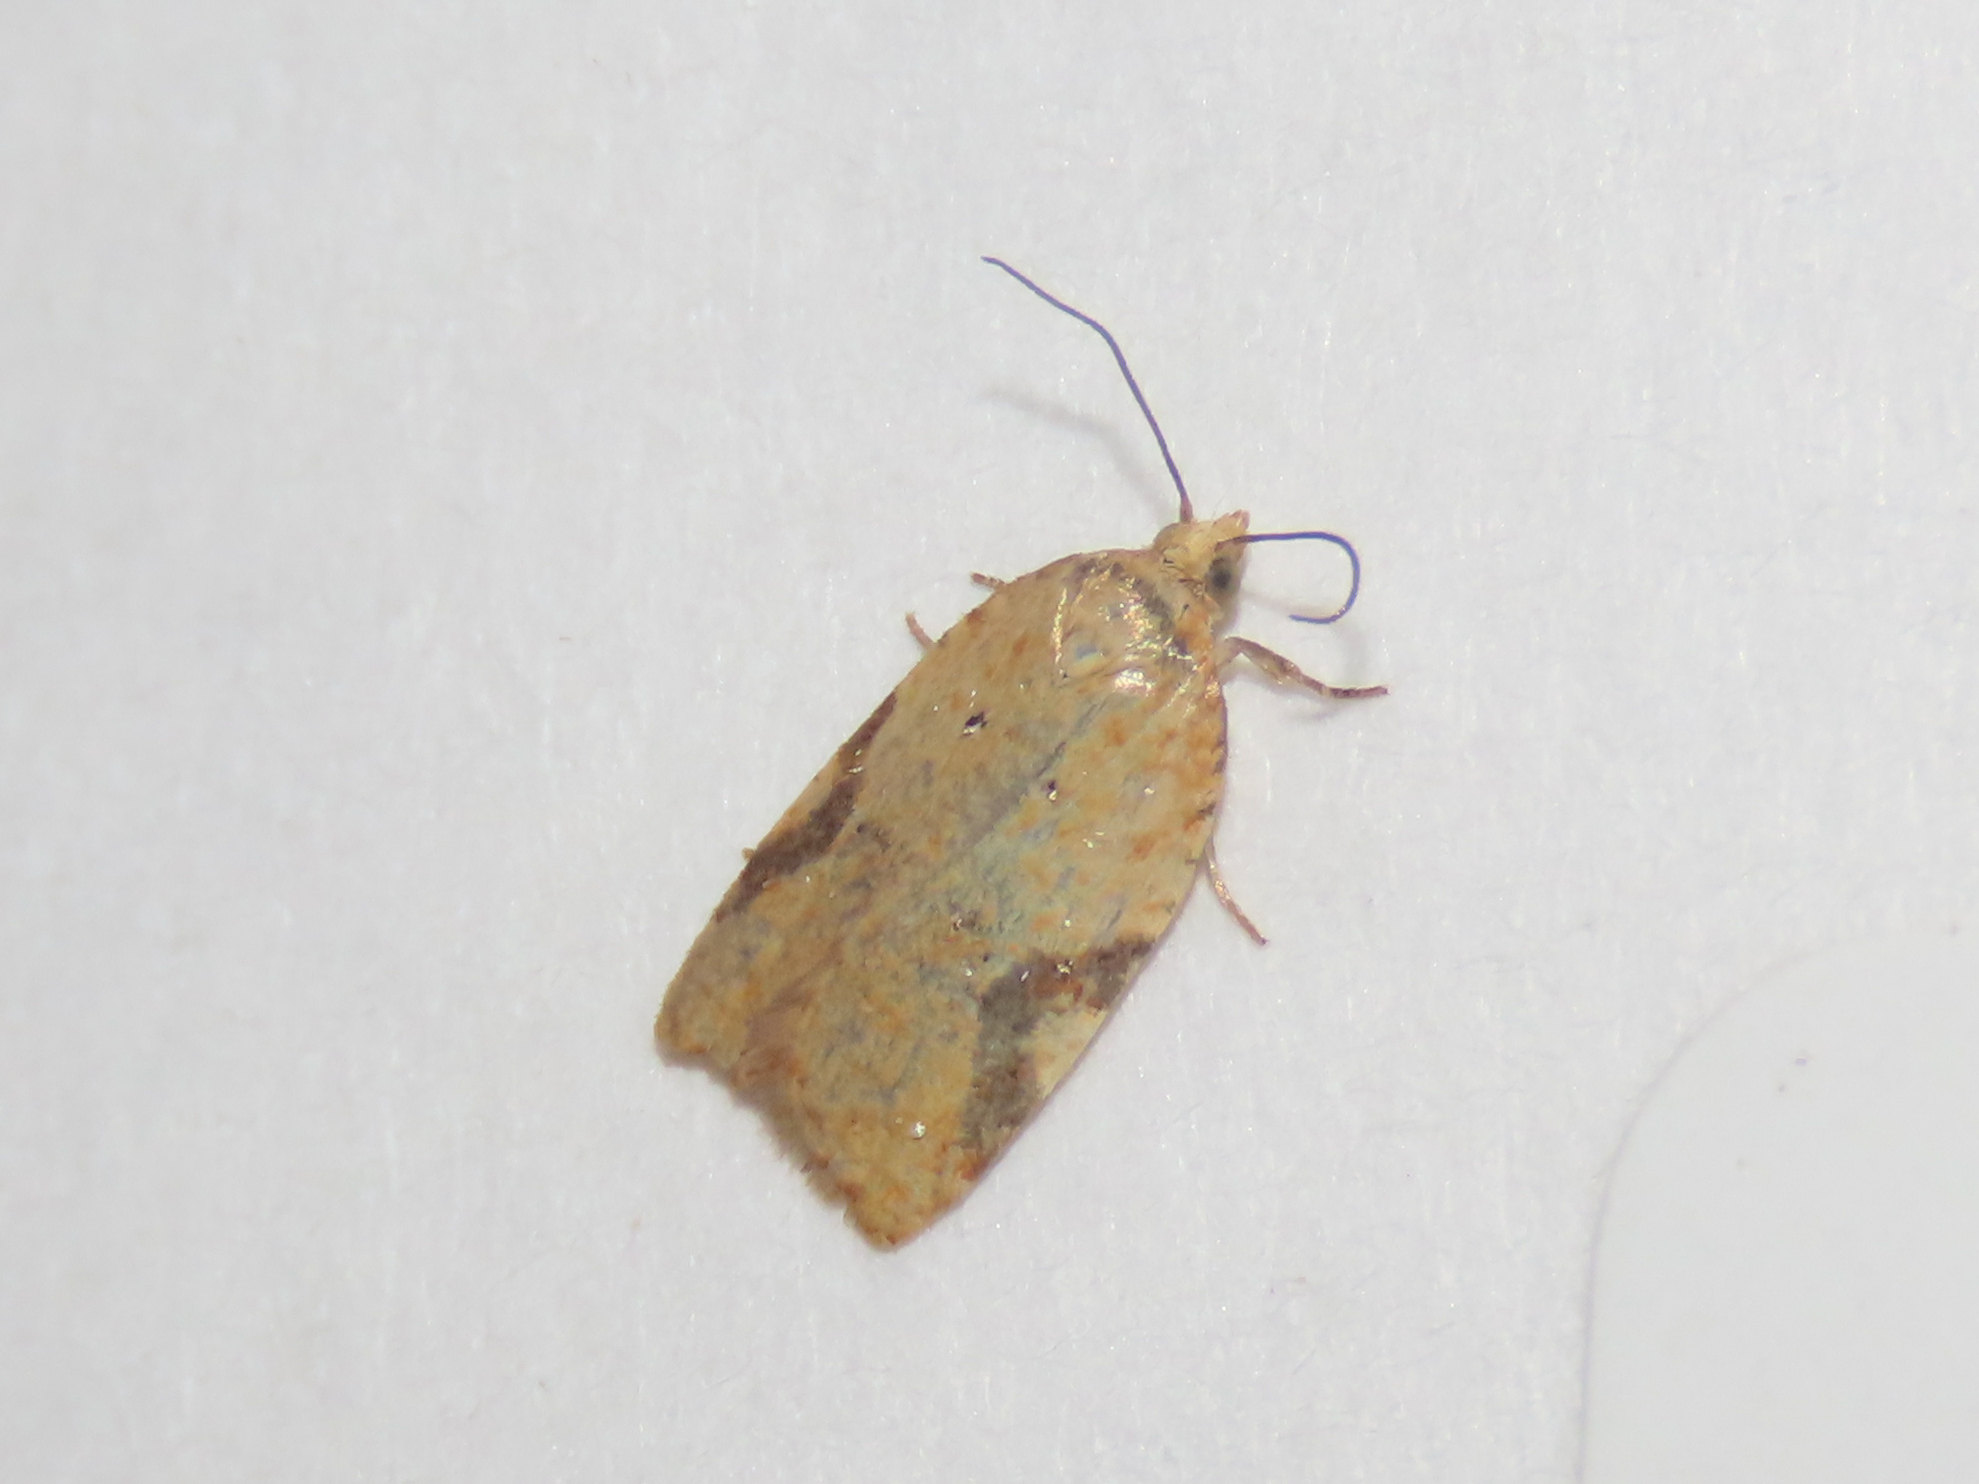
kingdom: Animalia
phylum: Arthropoda
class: Insecta
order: Lepidoptera
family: Tortricidae
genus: Acleris
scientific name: Acleris cervinana
